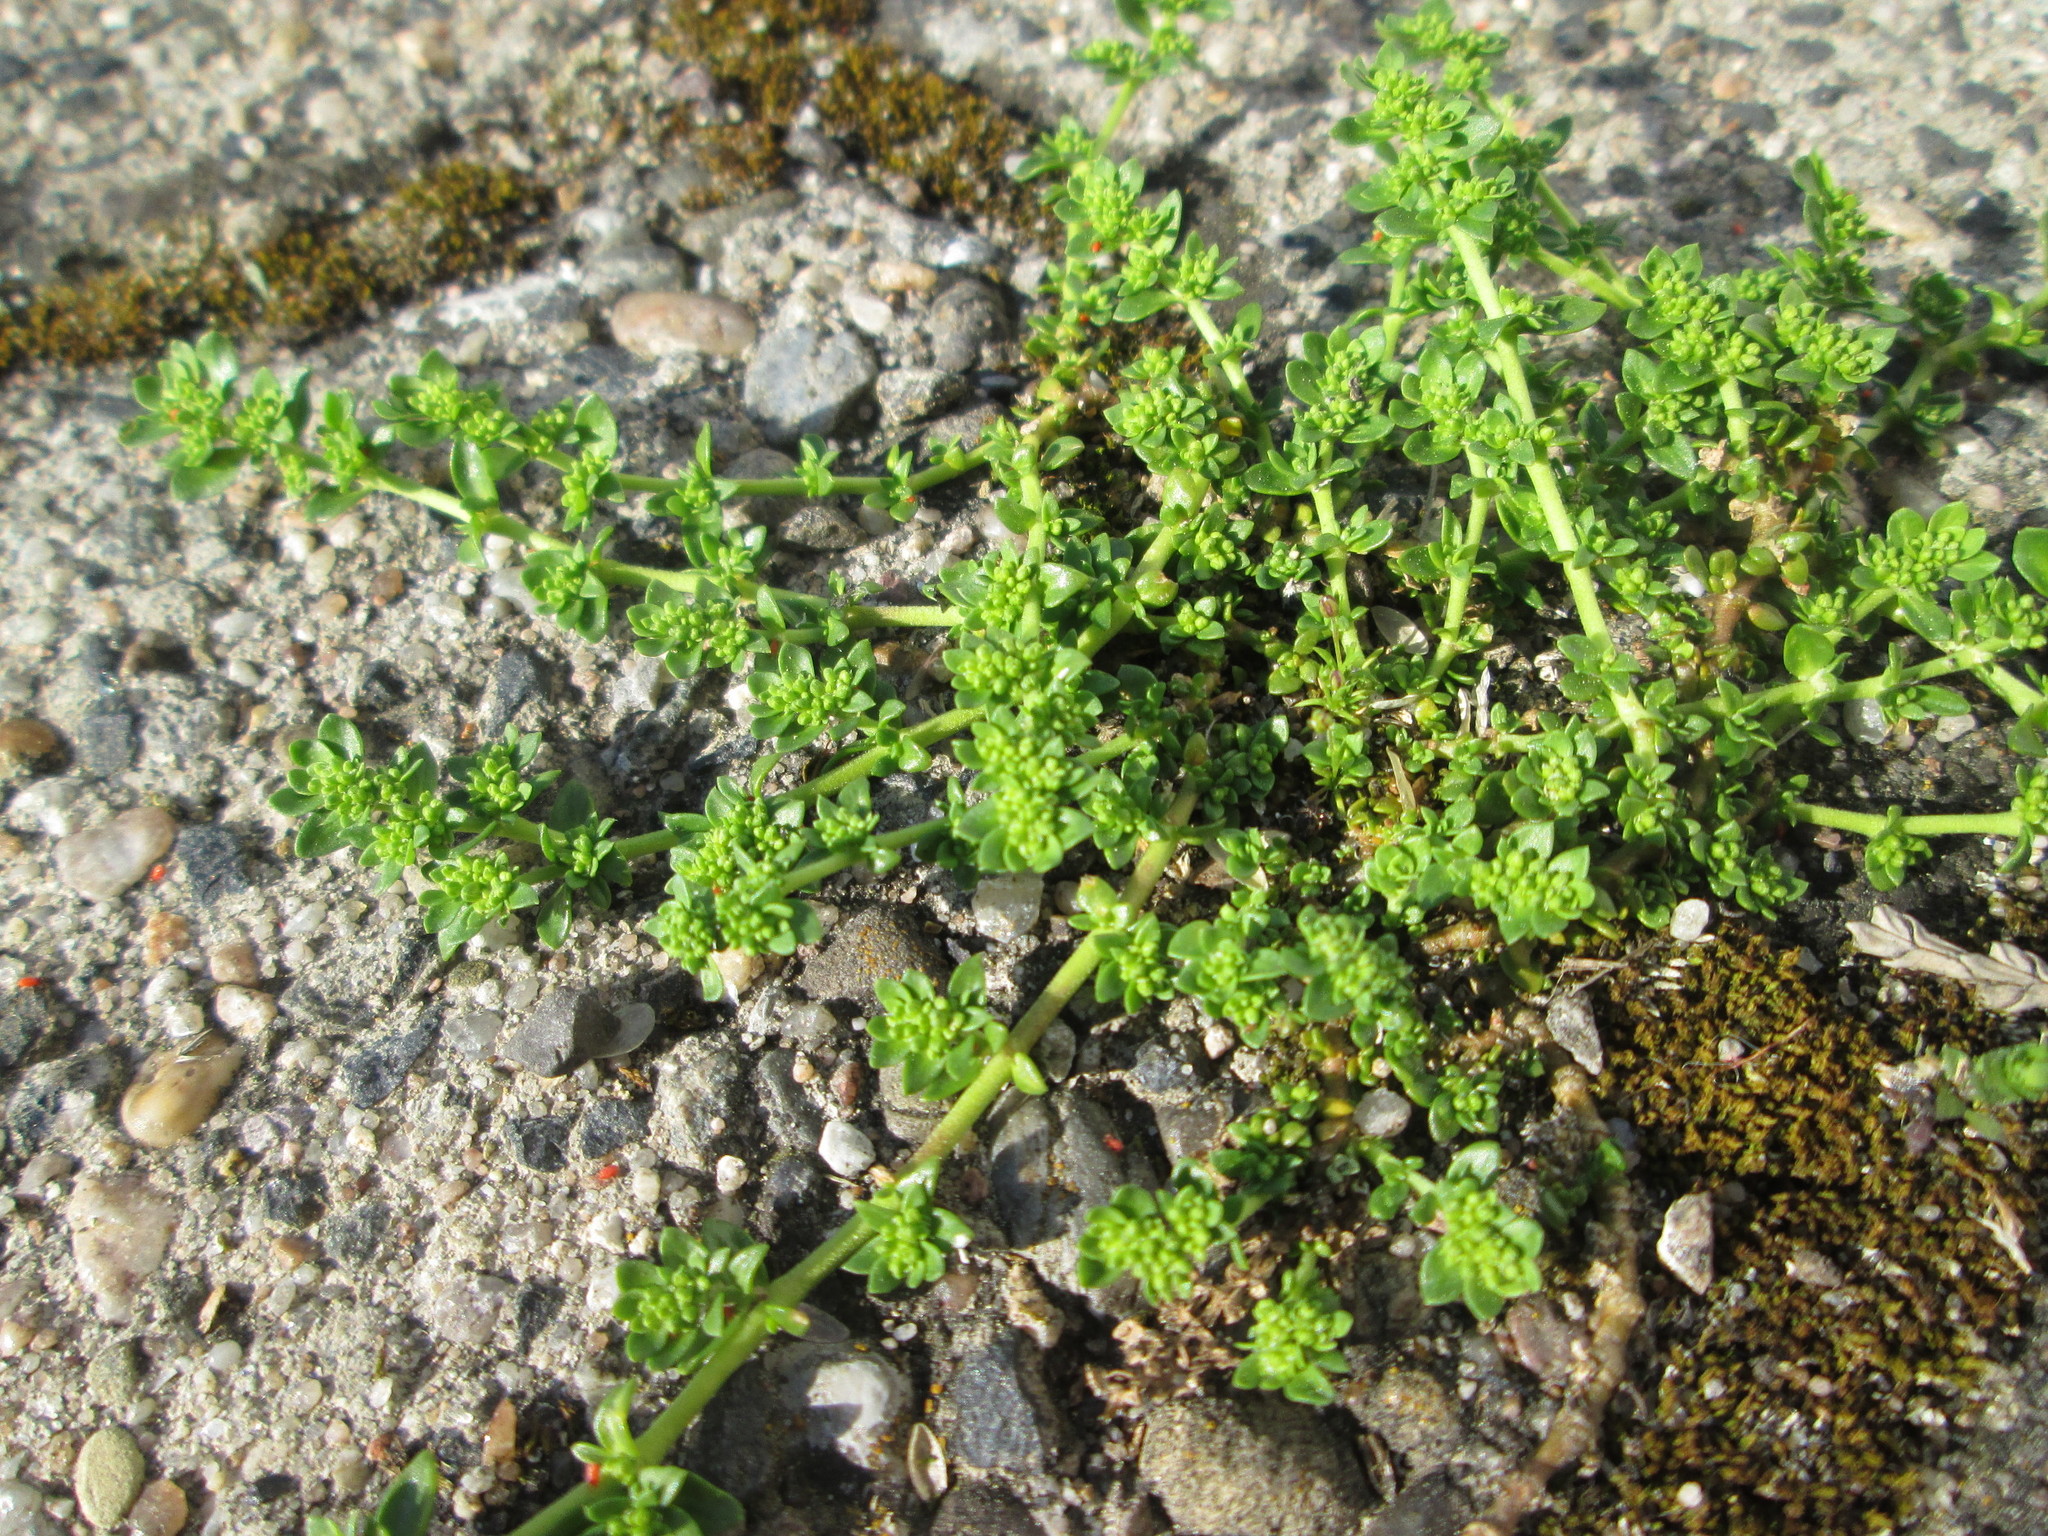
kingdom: Plantae
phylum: Tracheophyta
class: Magnoliopsida
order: Caryophyllales
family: Caryophyllaceae
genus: Herniaria
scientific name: Herniaria glabra
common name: Smooth rupturewort
